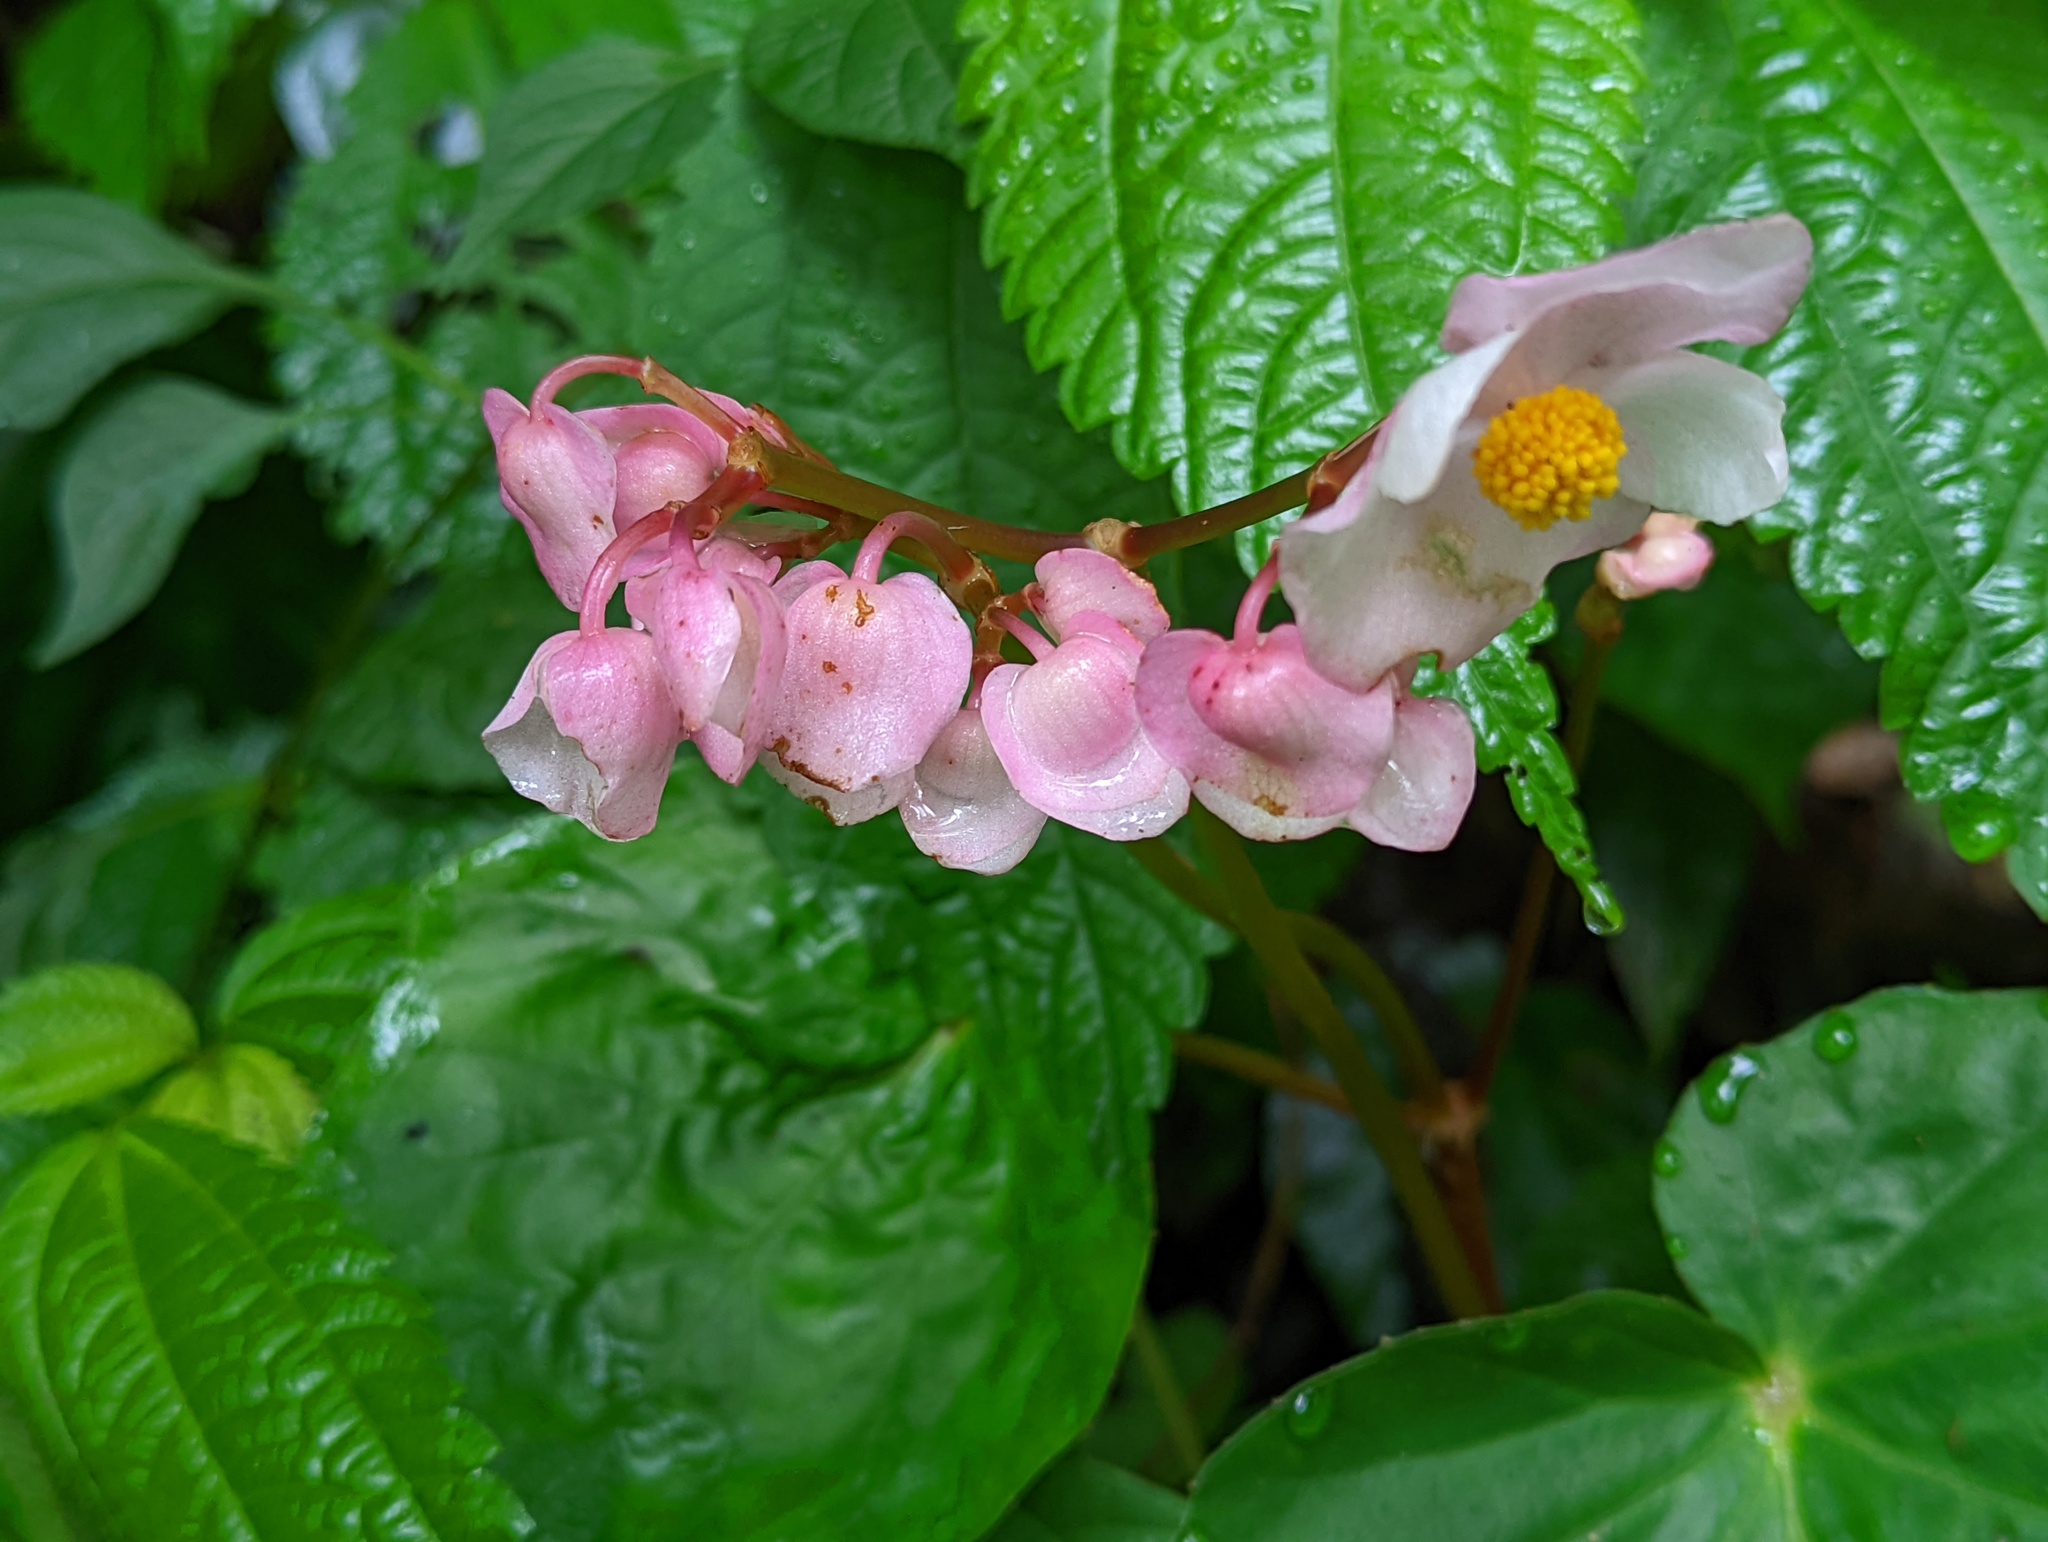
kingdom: Plantae
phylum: Tracheophyta
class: Magnoliopsida
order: Cucurbitales
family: Begoniaceae
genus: Begonia
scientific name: Begonia chitoensis
